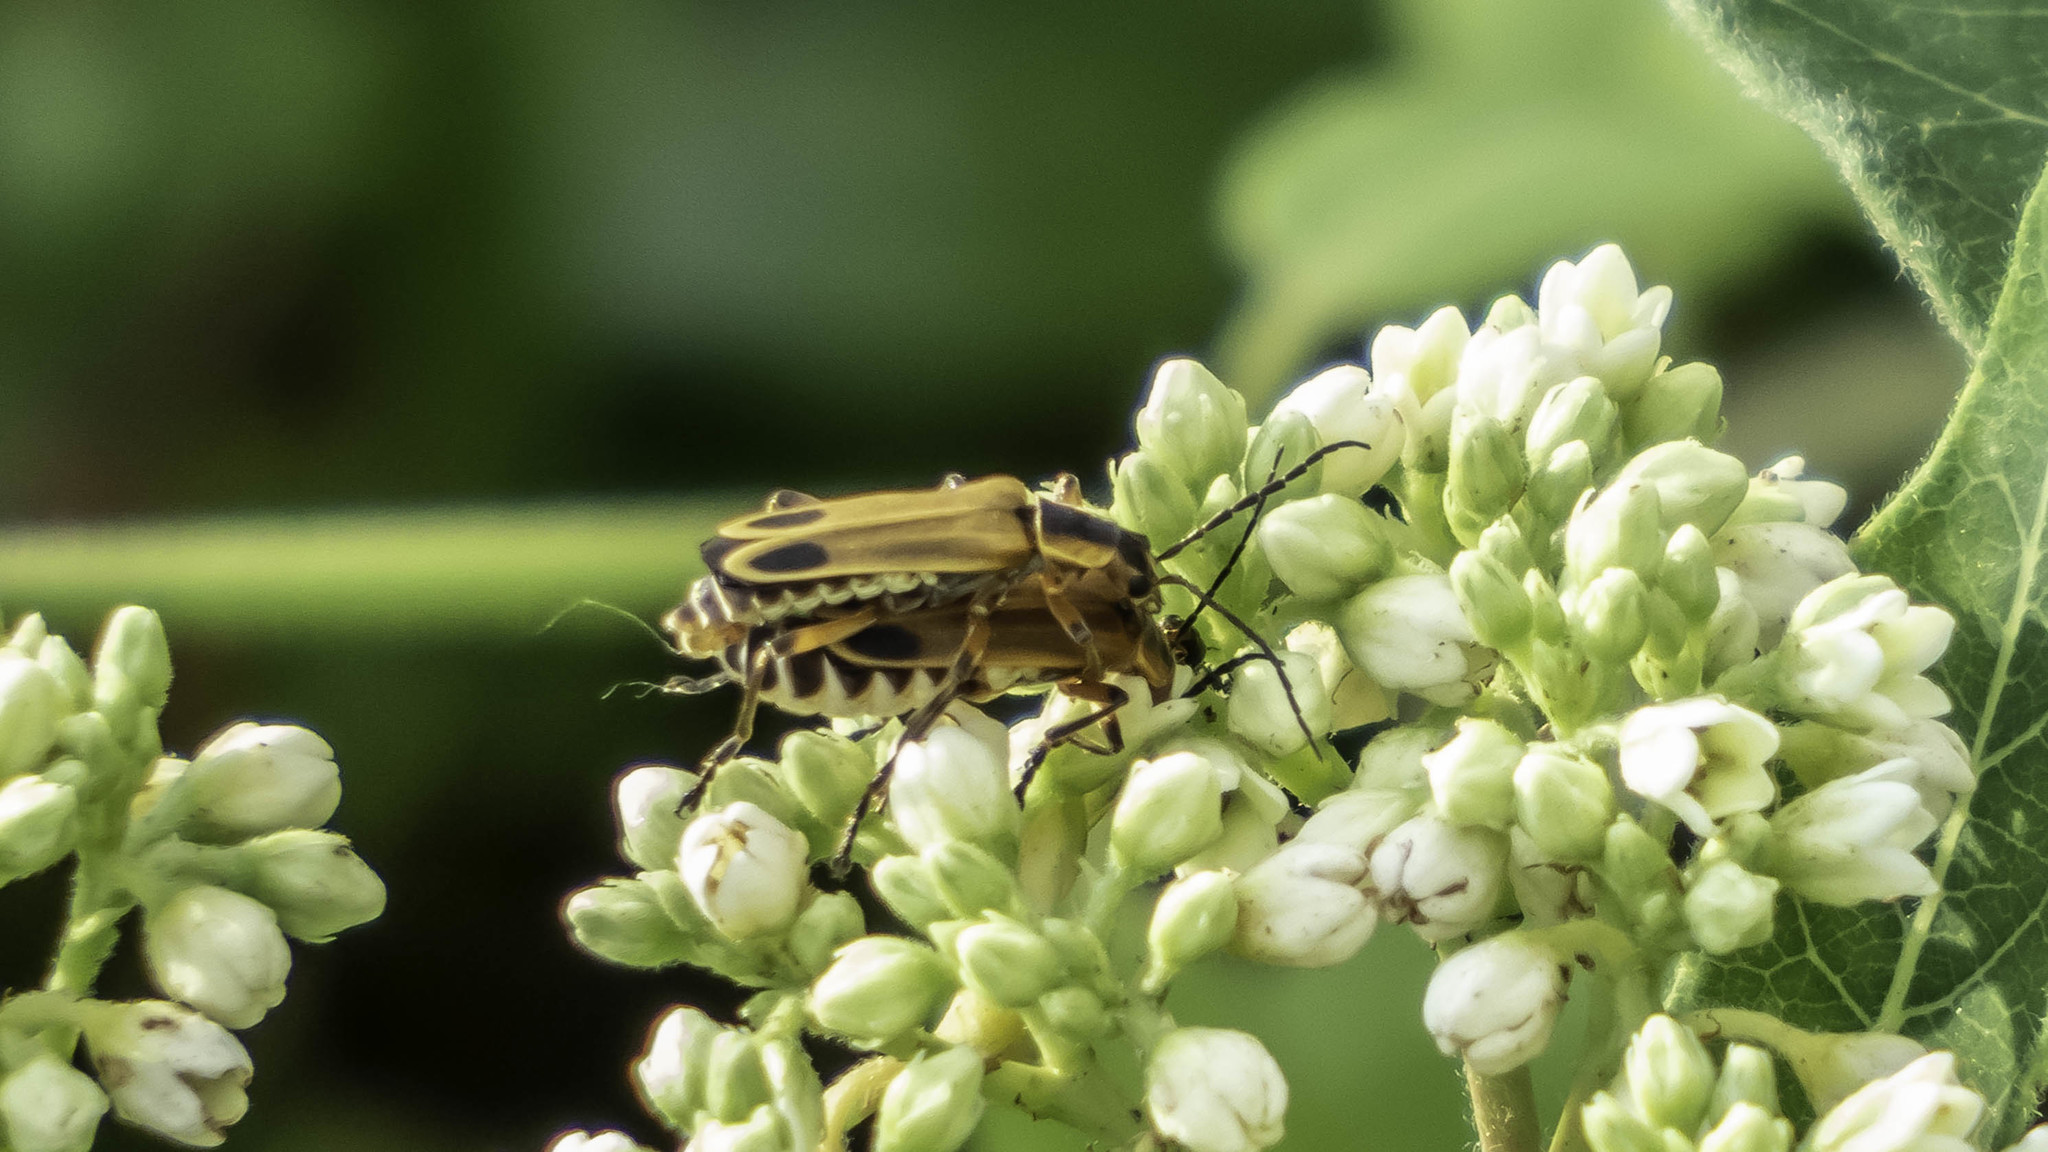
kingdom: Animalia
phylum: Arthropoda
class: Insecta
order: Coleoptera
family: Cantharidae
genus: Chauliognathus
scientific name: Chauliognathus marginatus
